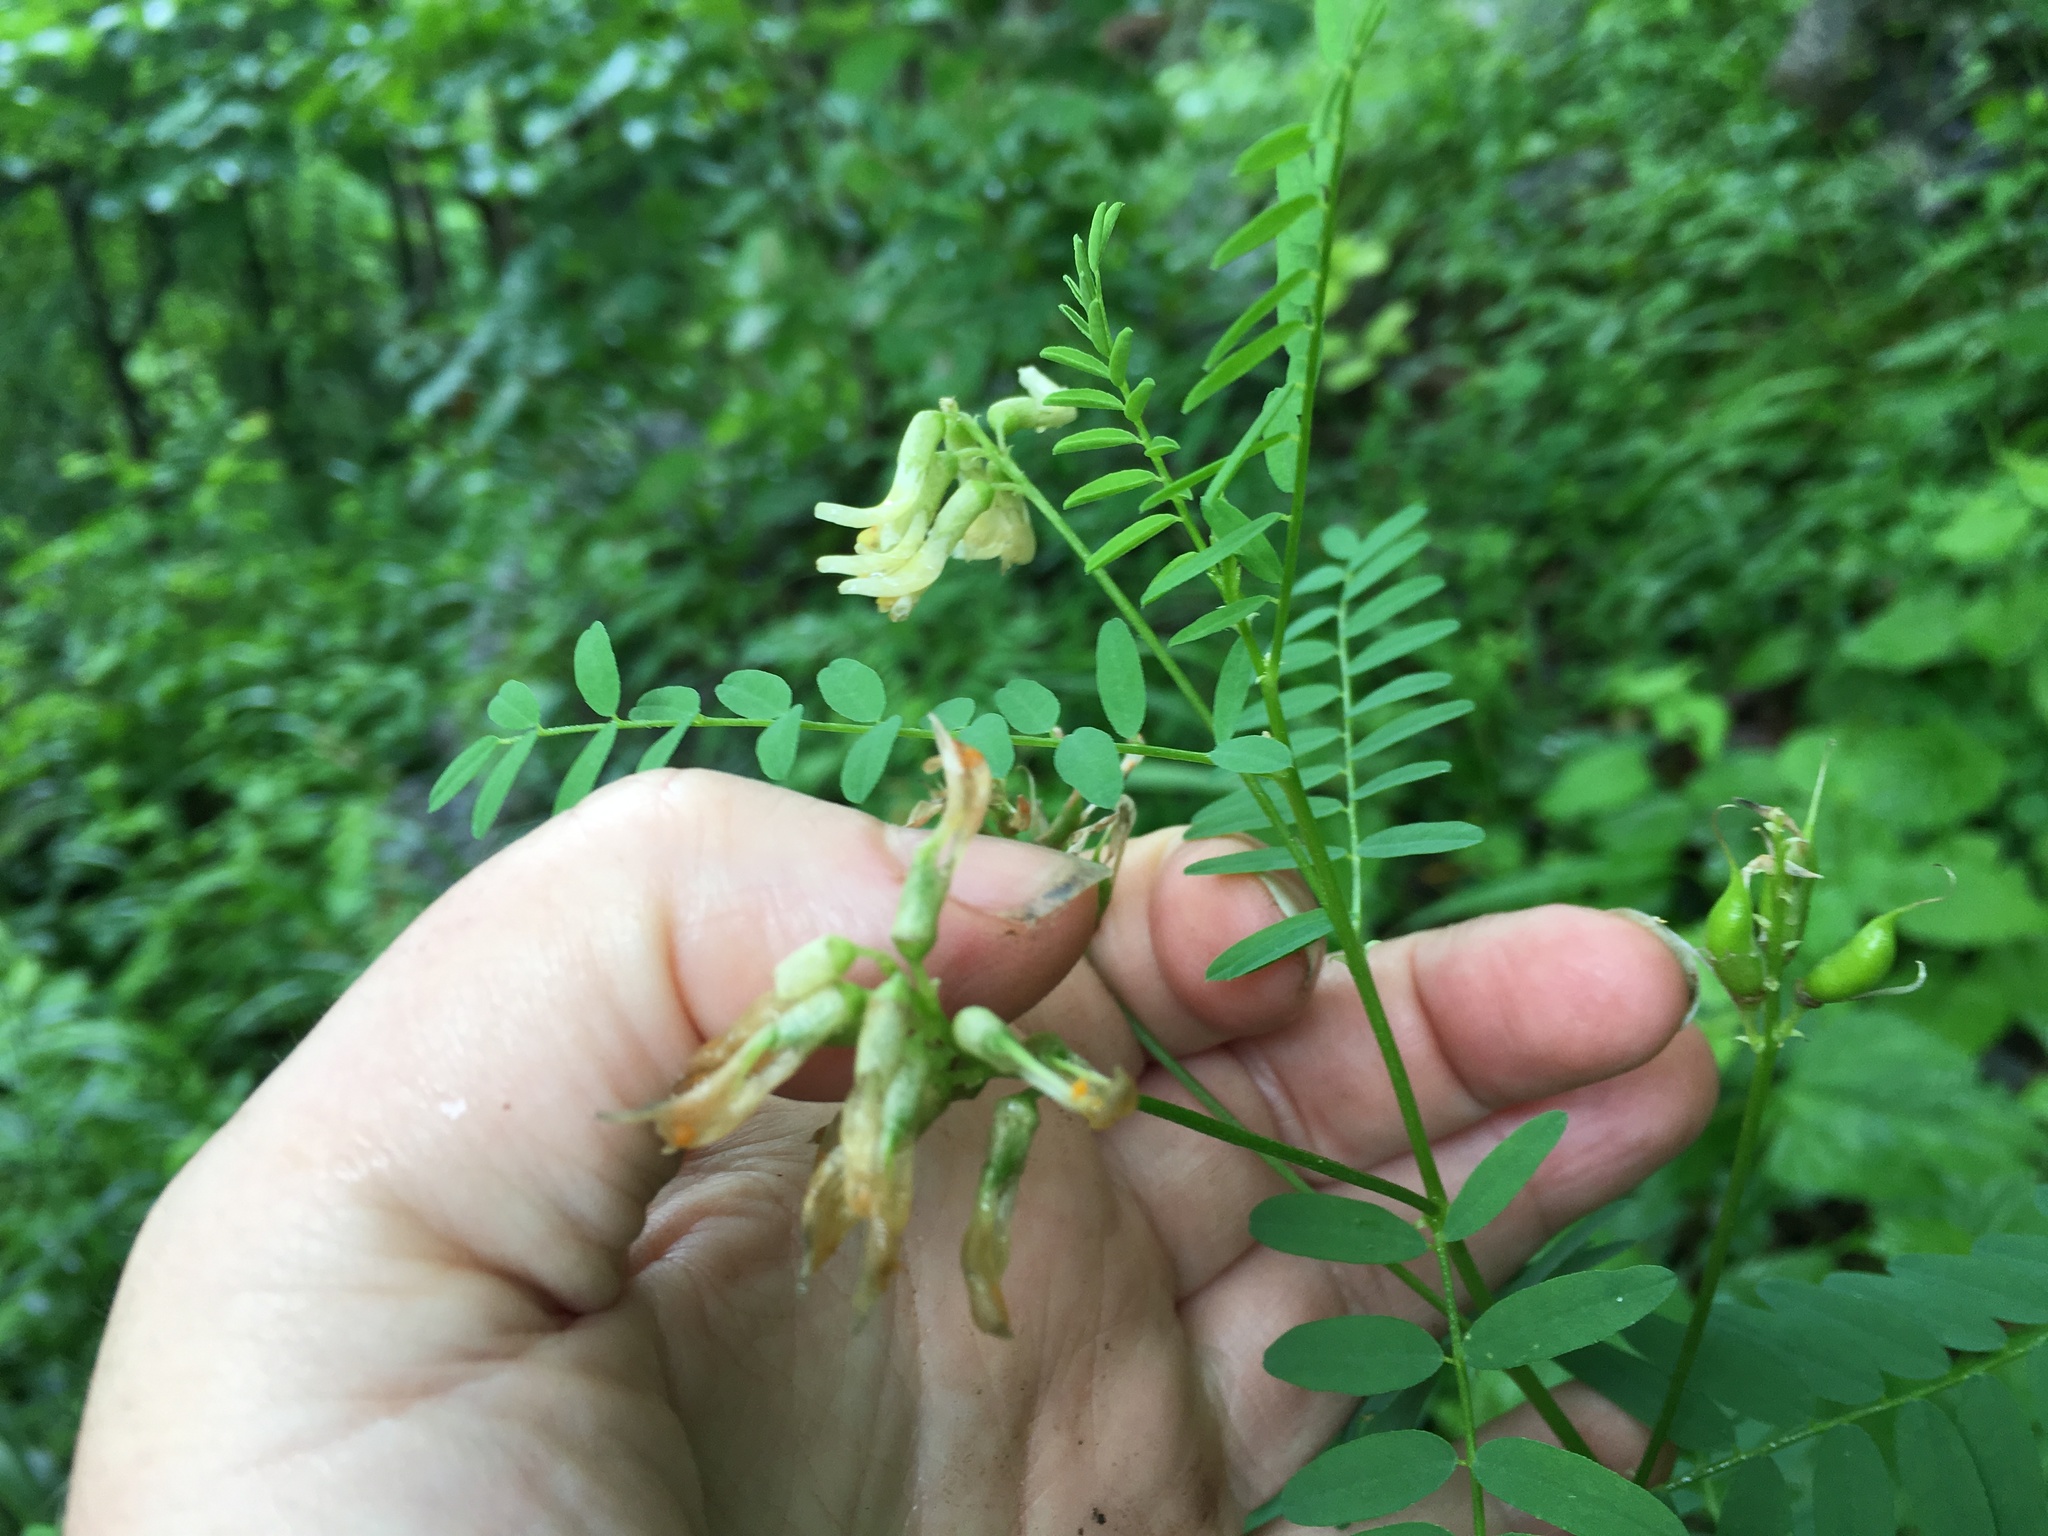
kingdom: Plantae
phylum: Tracheophyta
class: Magnoliopsida
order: Fabales
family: Fabaceae
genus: Astragalus
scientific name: Astragalus neglectus
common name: Cooper's milk-vetch
